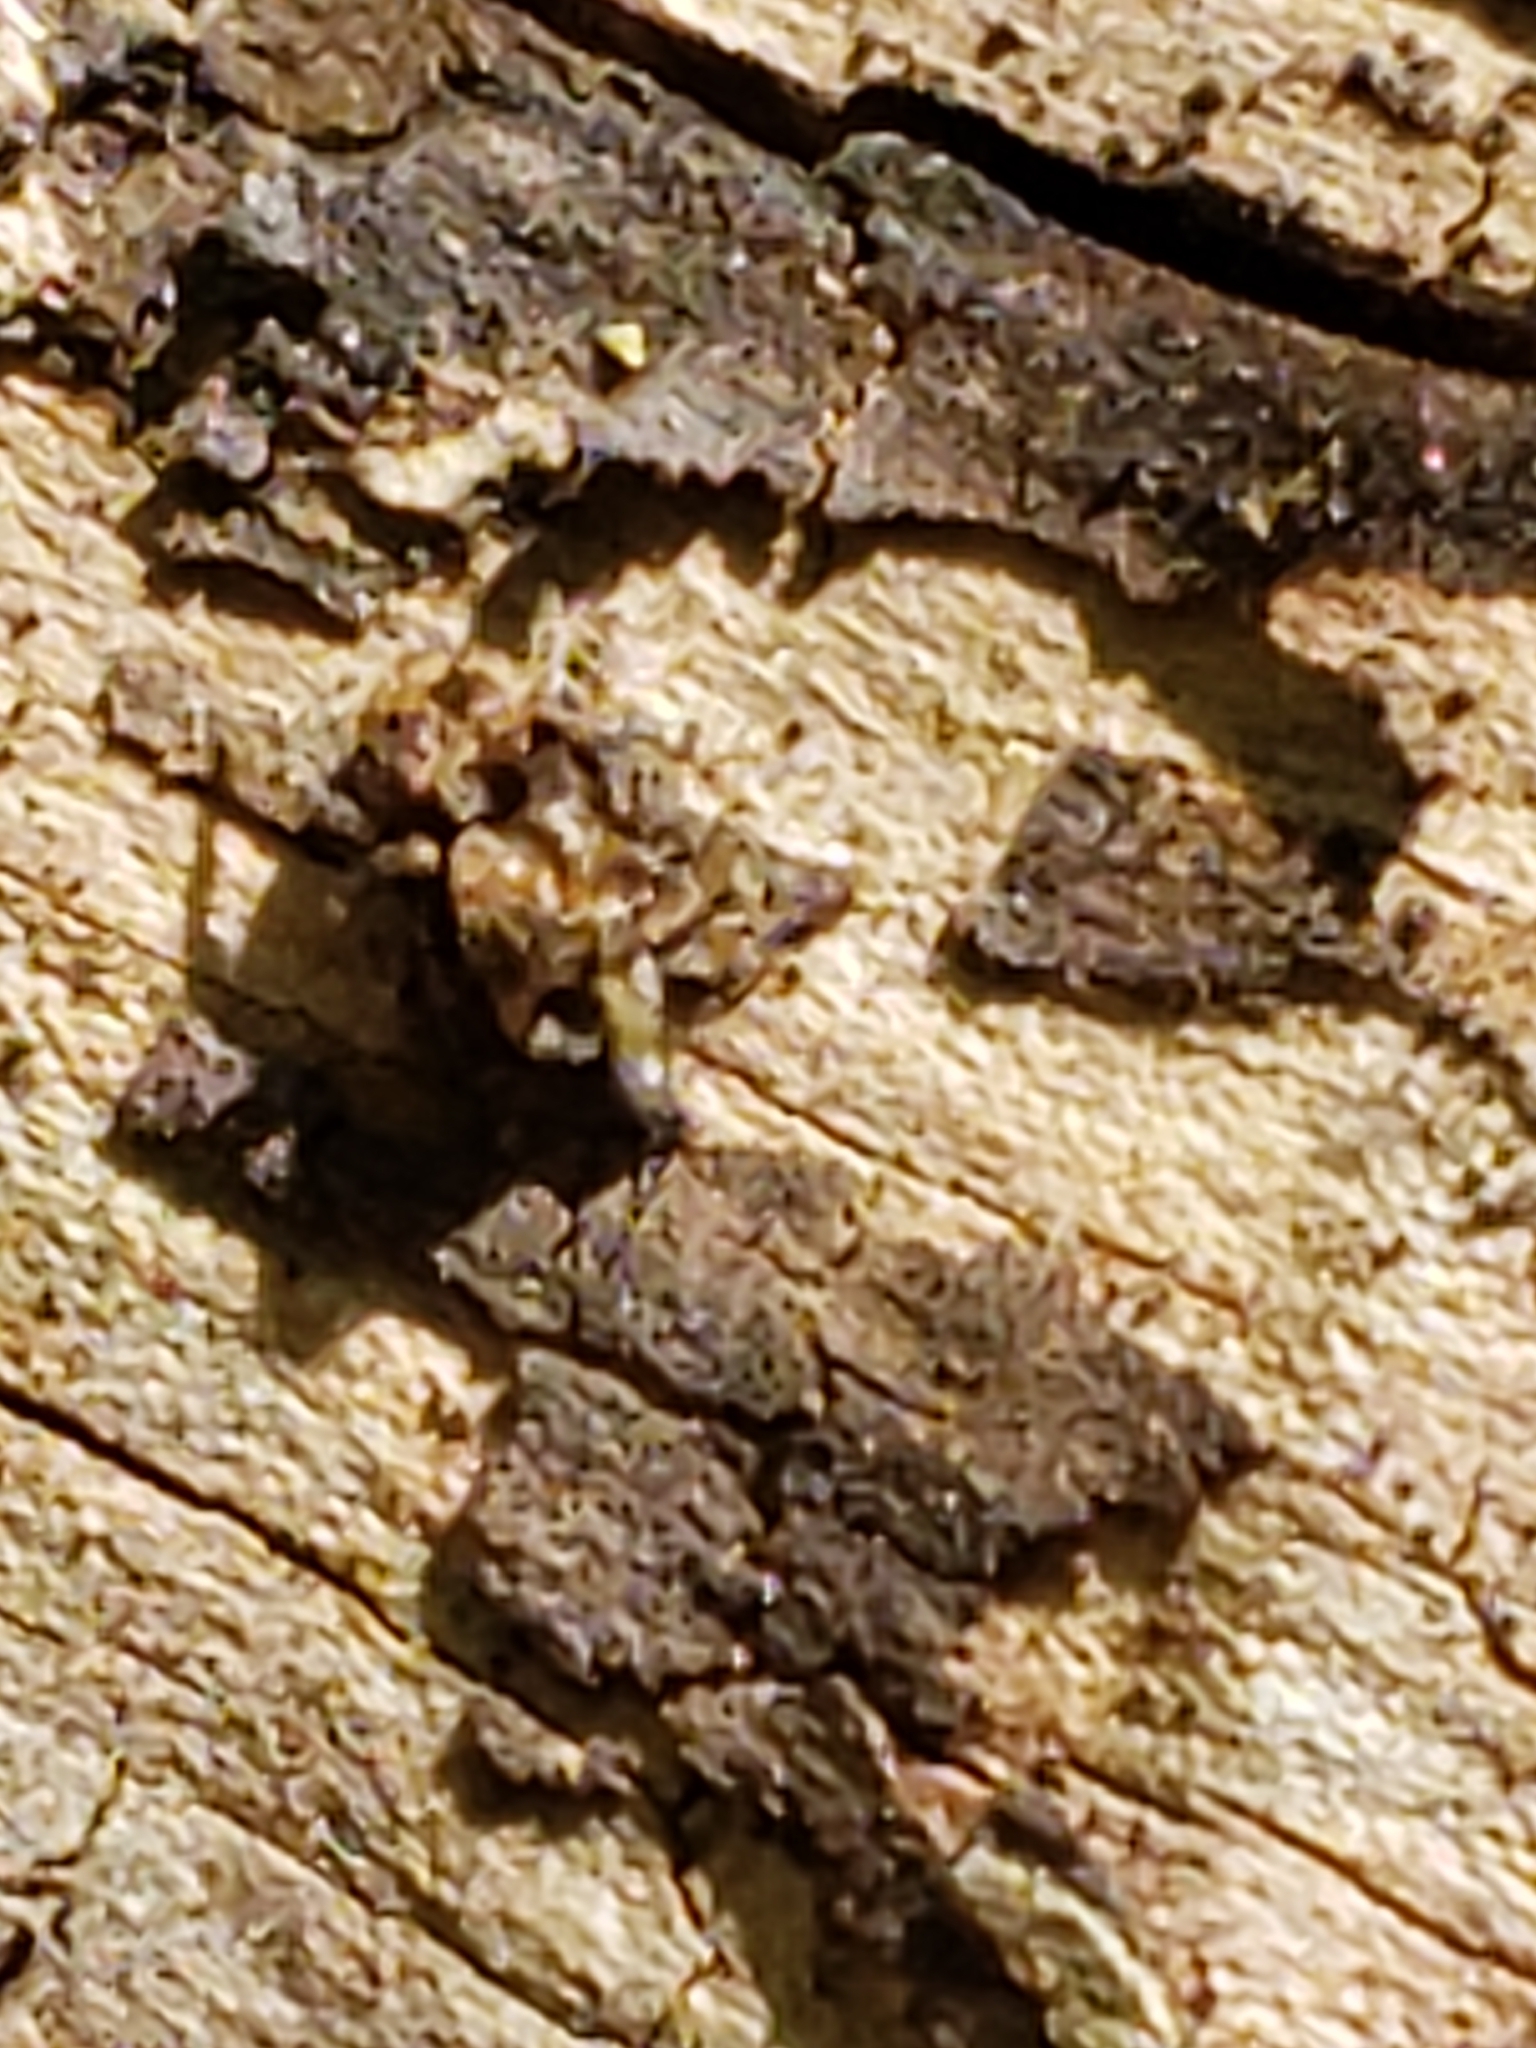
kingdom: Animalia
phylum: Arthropoda
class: Arachnida
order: Araneae
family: Salticidae
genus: Naphrys
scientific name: Naphrys pulex
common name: Flea jumping spider
